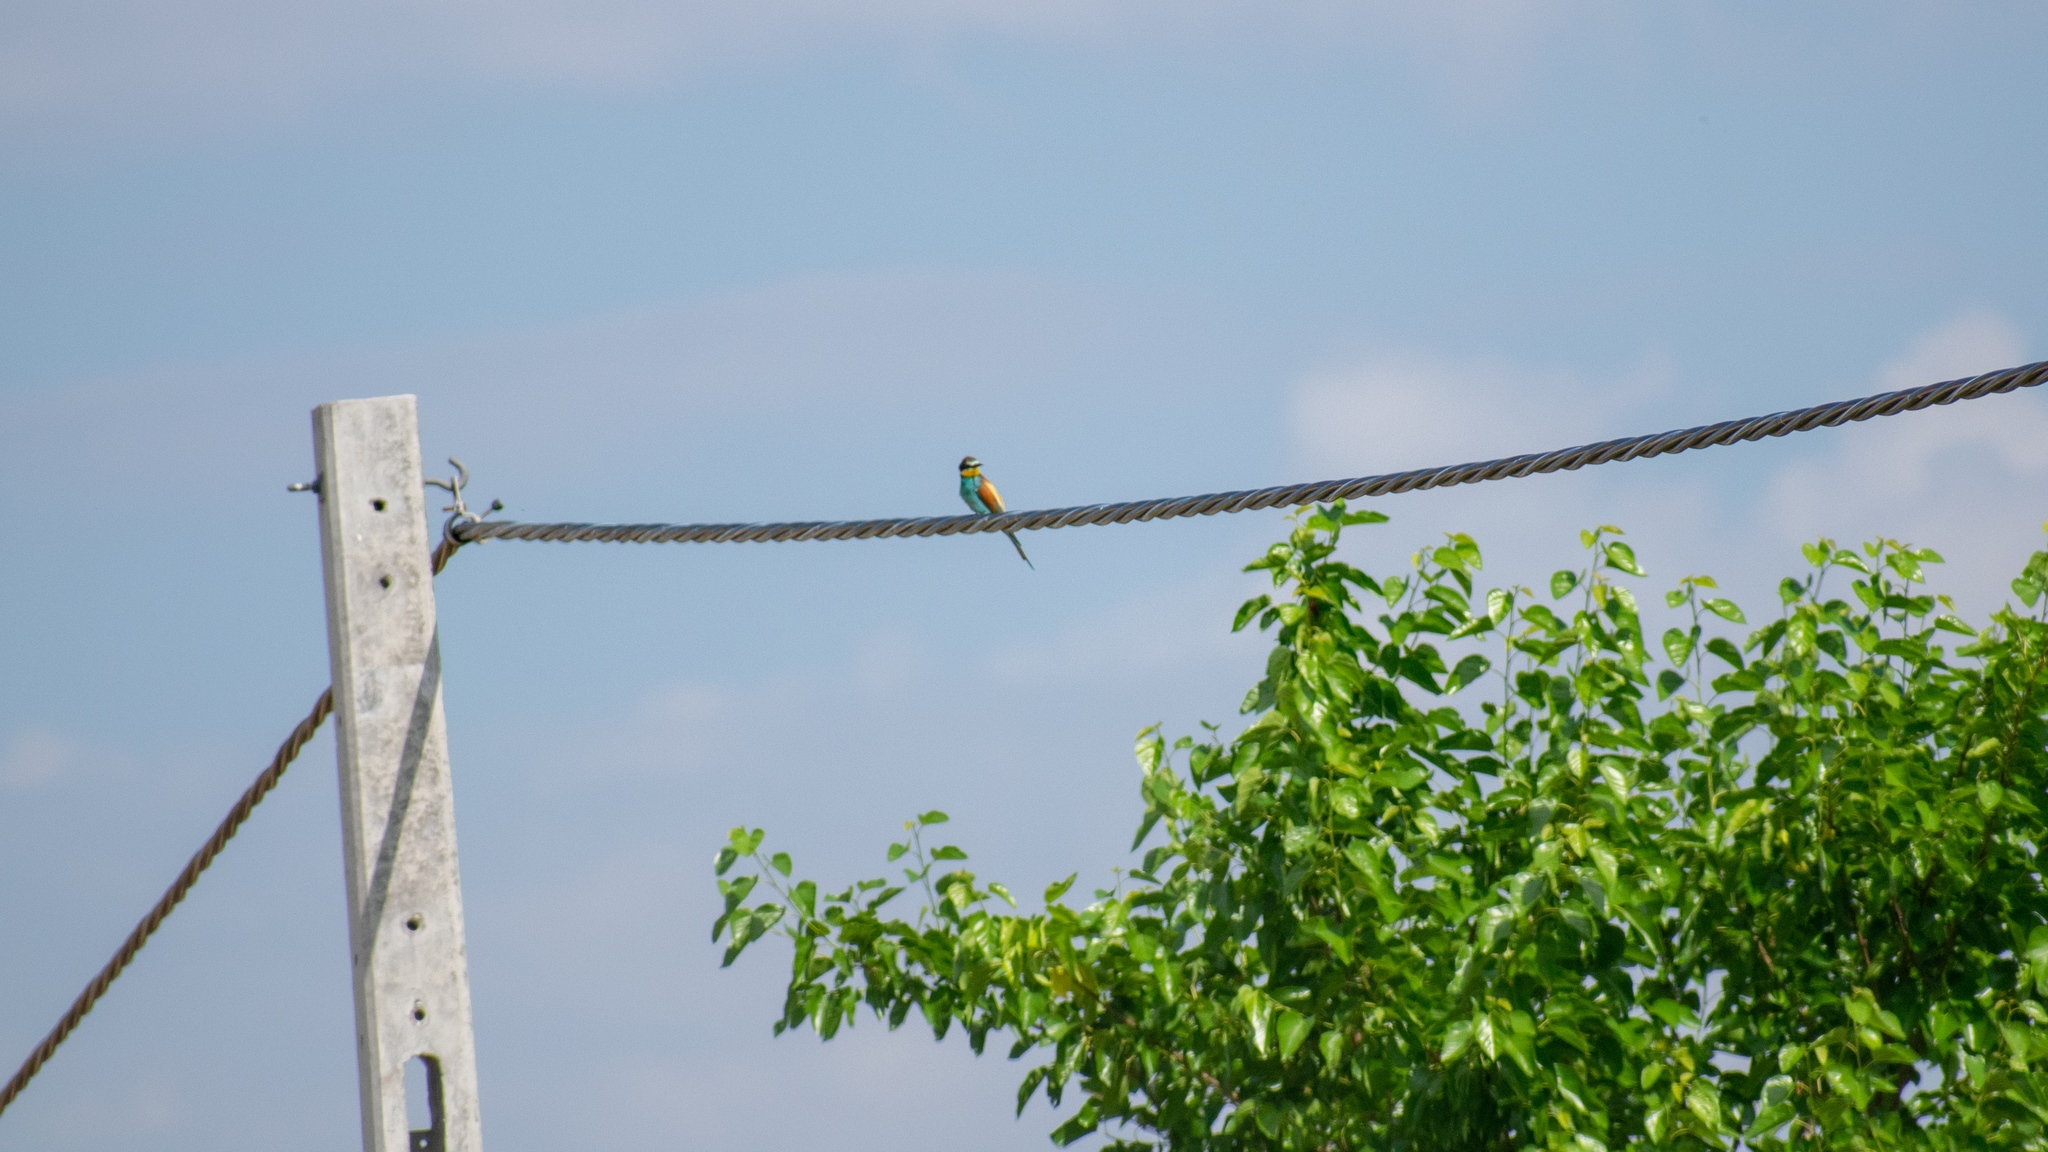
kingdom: Animalia
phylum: Chordata
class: Aves
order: Coraciiformes
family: Meropidae
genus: Merops
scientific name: Merops apiaster
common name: European bee-eater
